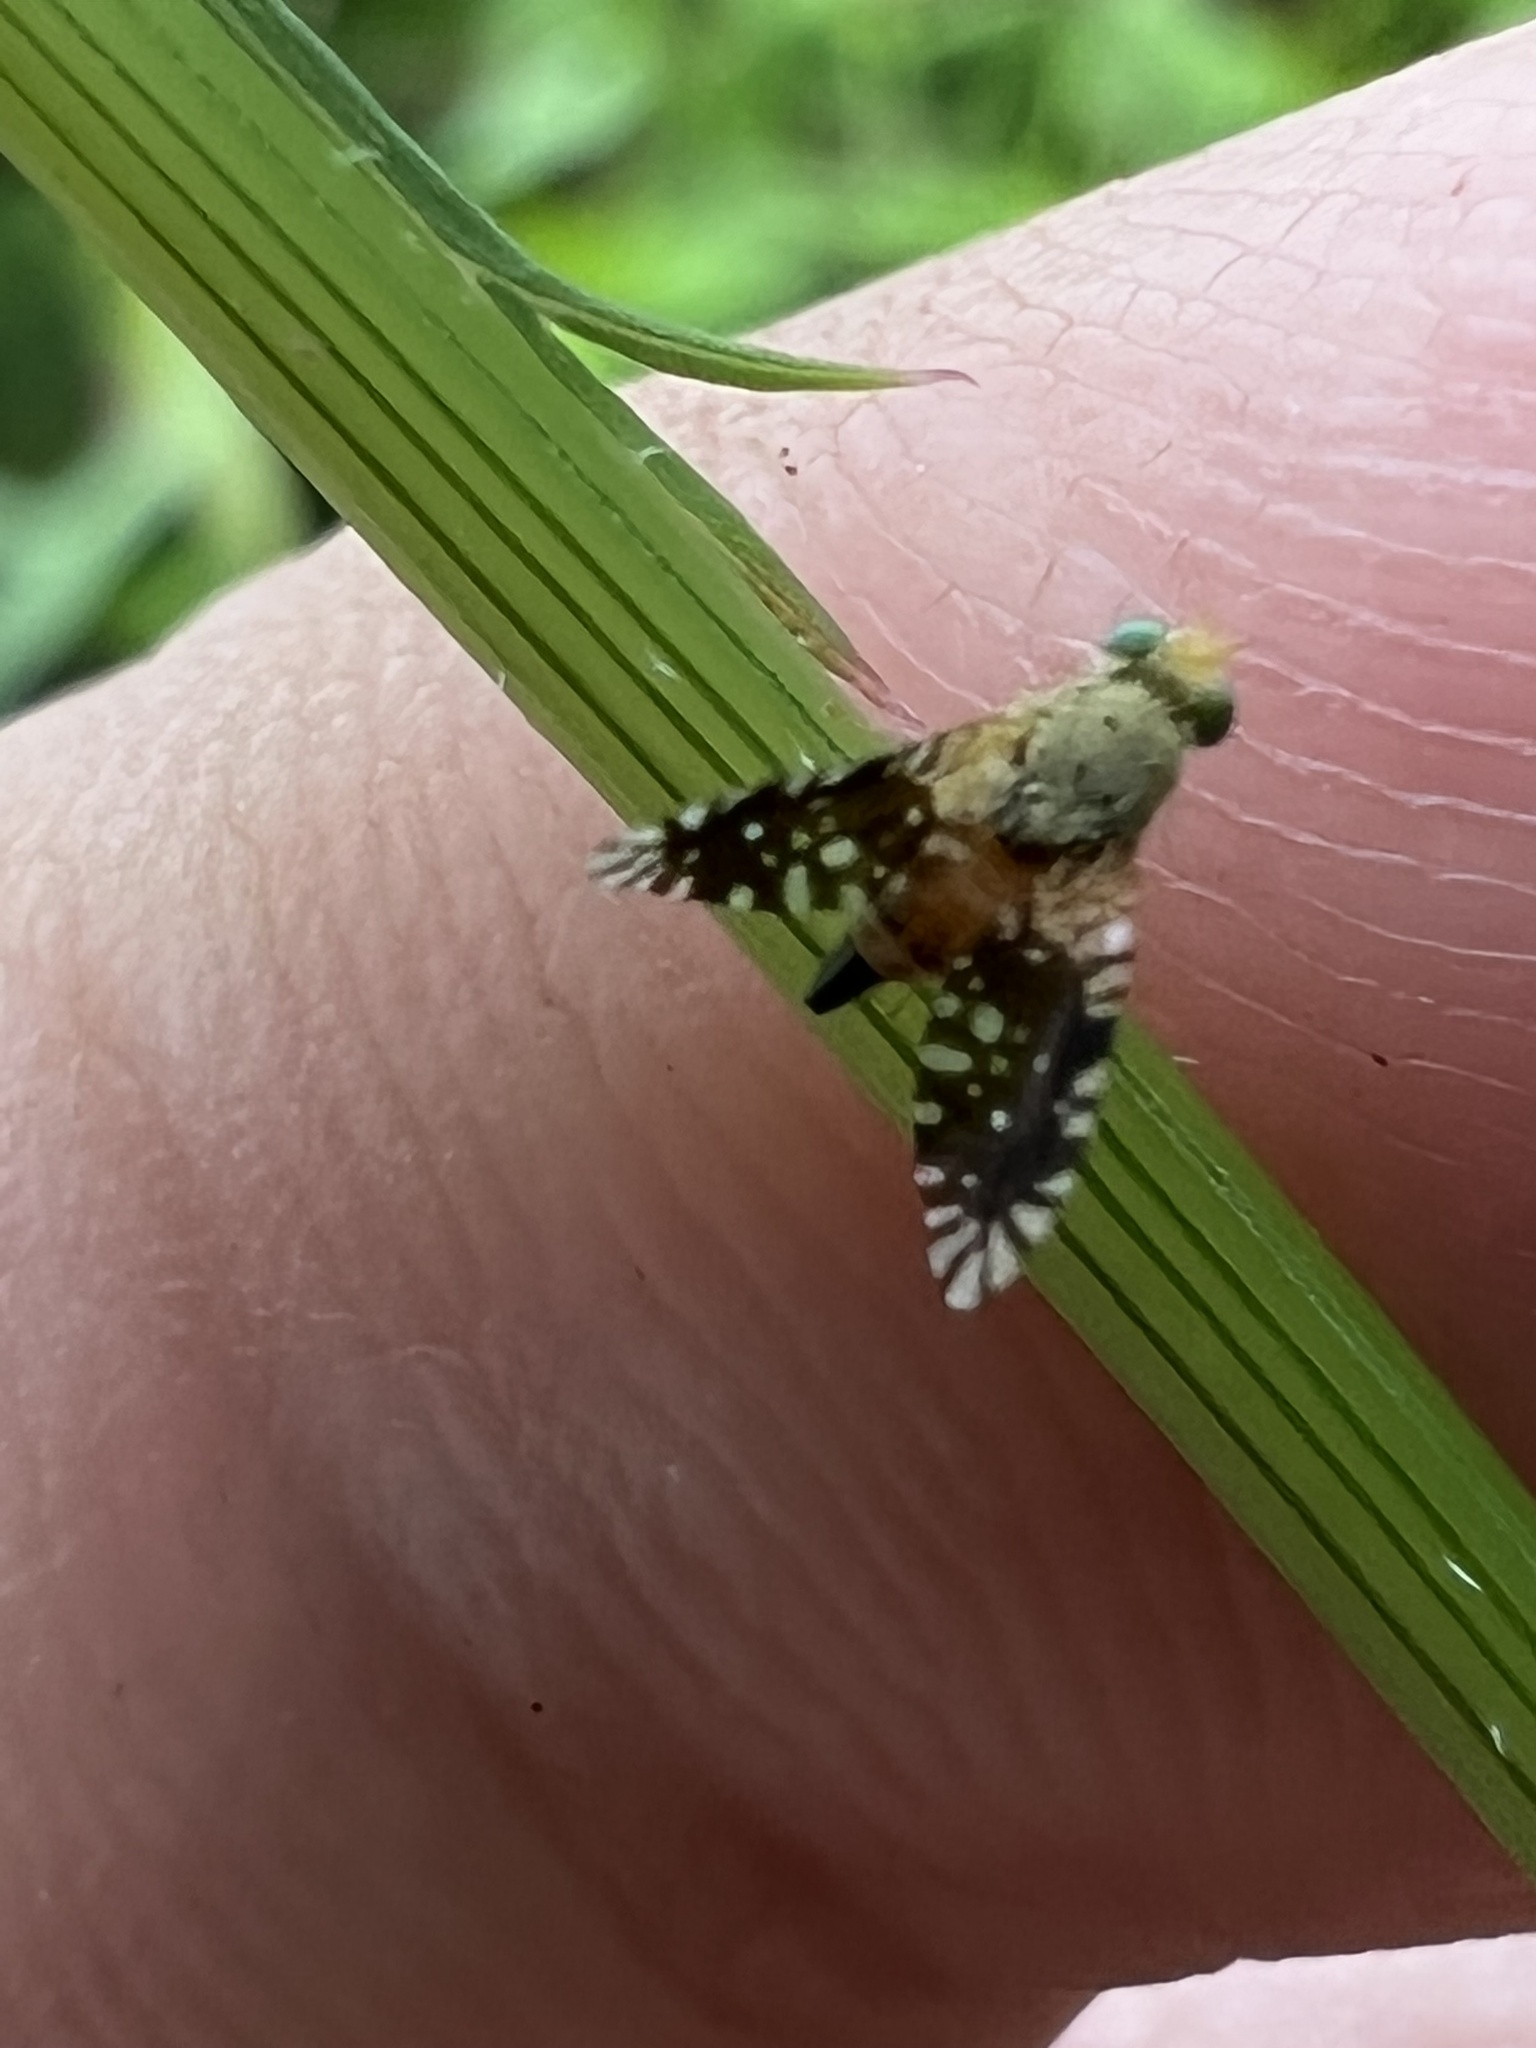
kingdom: Animalia
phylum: Arthropoda
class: Insecta
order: Diptera
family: Tephritidae
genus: Euaresta
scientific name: Euaresta bella
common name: Common ragweed fruit fly
